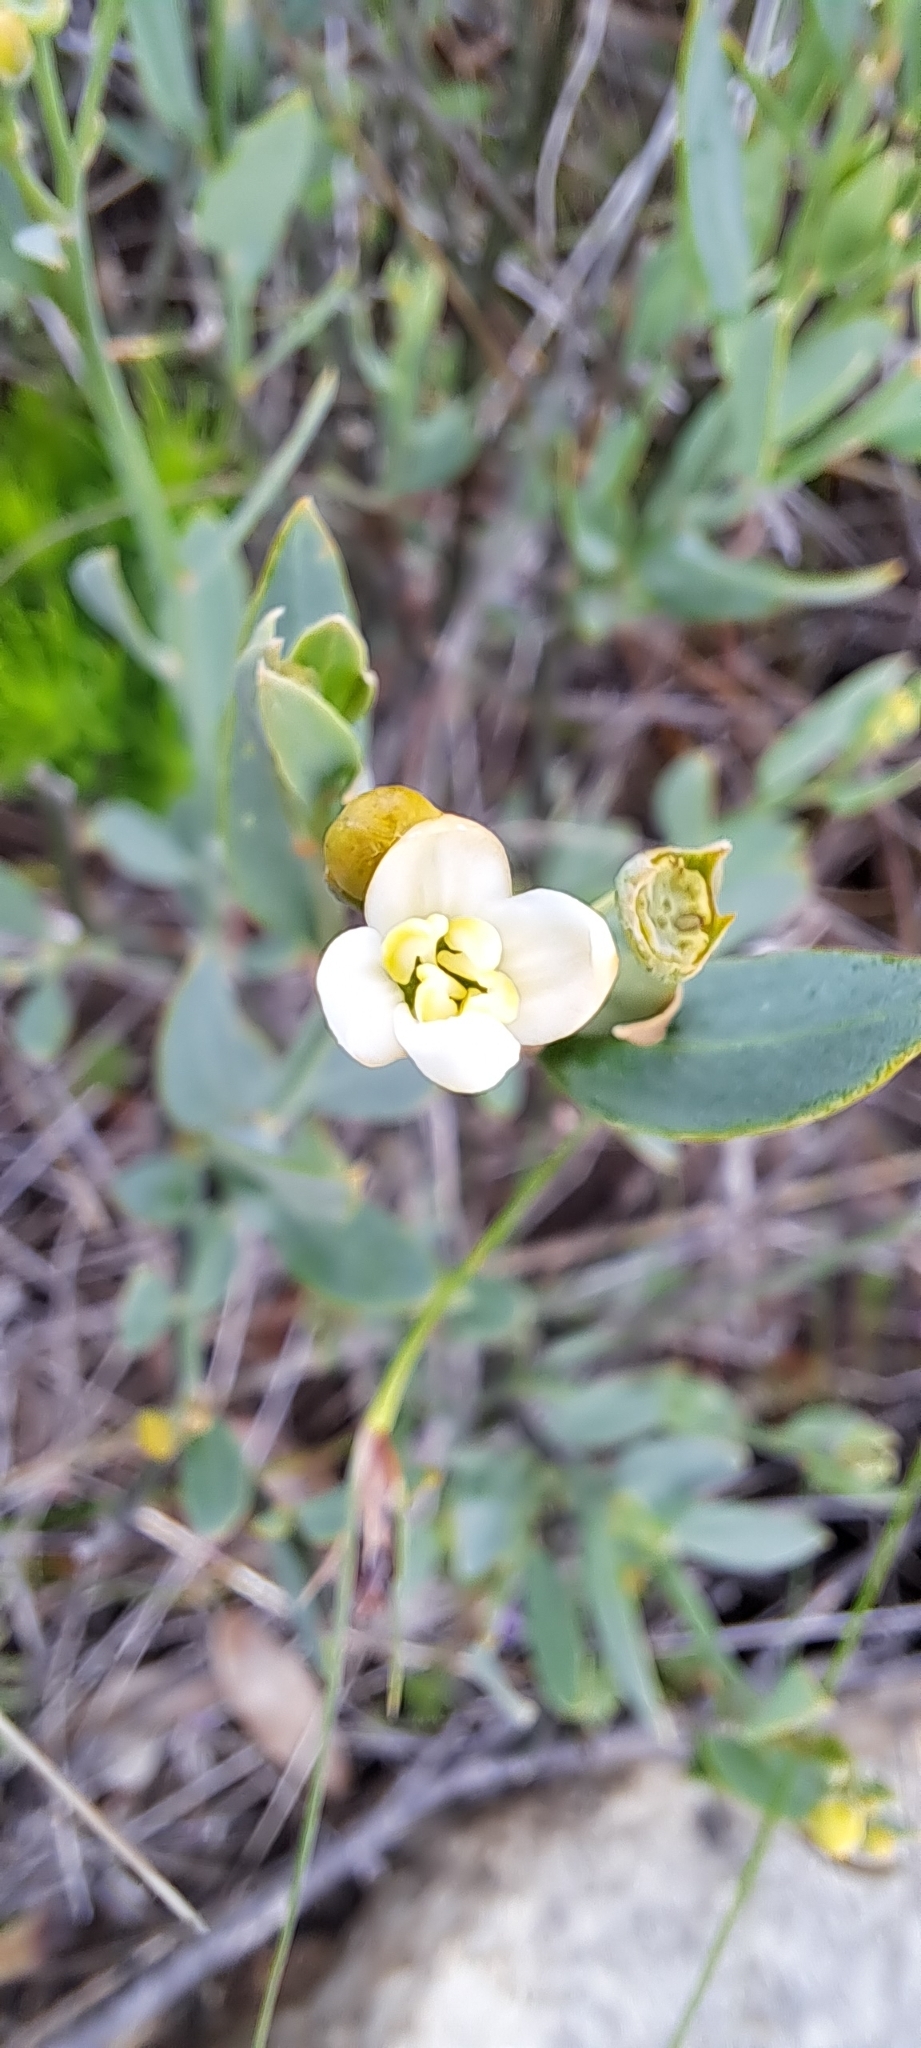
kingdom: Plantae
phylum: Tracheophyta
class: Magnoliopsida
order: Solanales
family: Montiniaceae
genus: Montinia
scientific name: Montinia caryophyllacea
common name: Wild clove-bush
